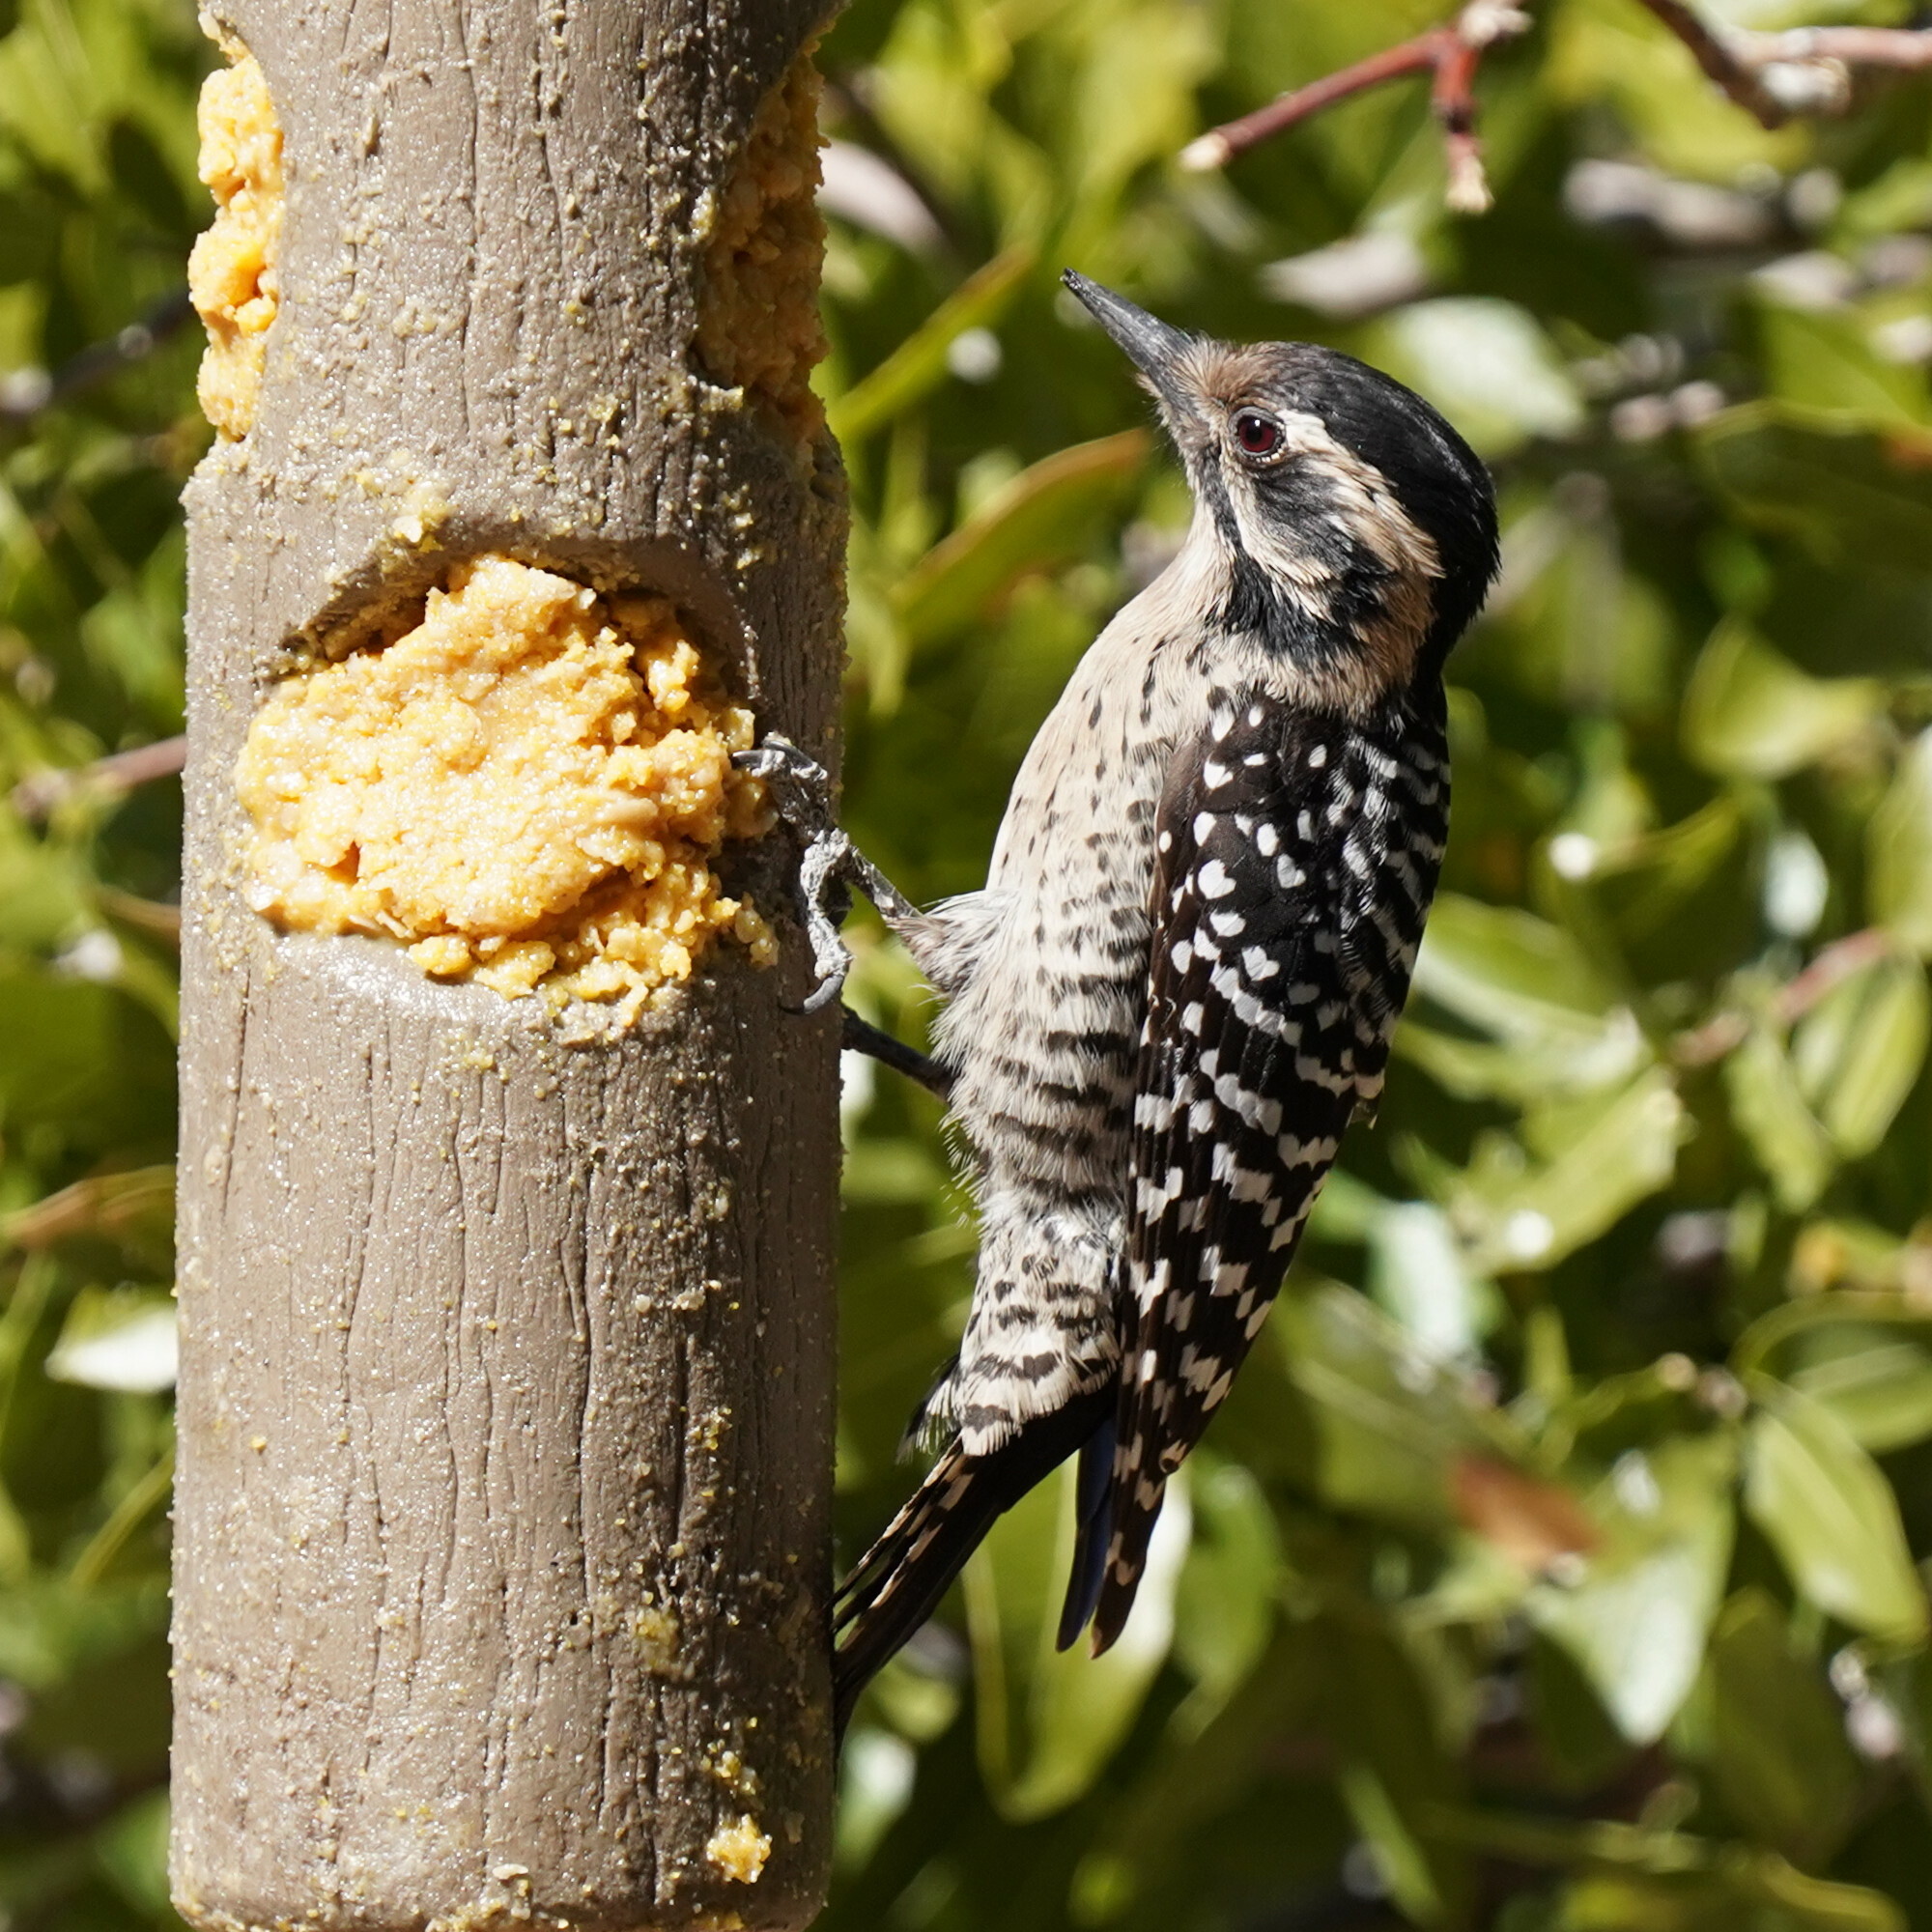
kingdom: Animalia
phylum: Chordata
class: Aves
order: Piciformes
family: Picidae
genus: Dryobates
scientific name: Dryobates scalaris
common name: Ladder-backed woodpecker
